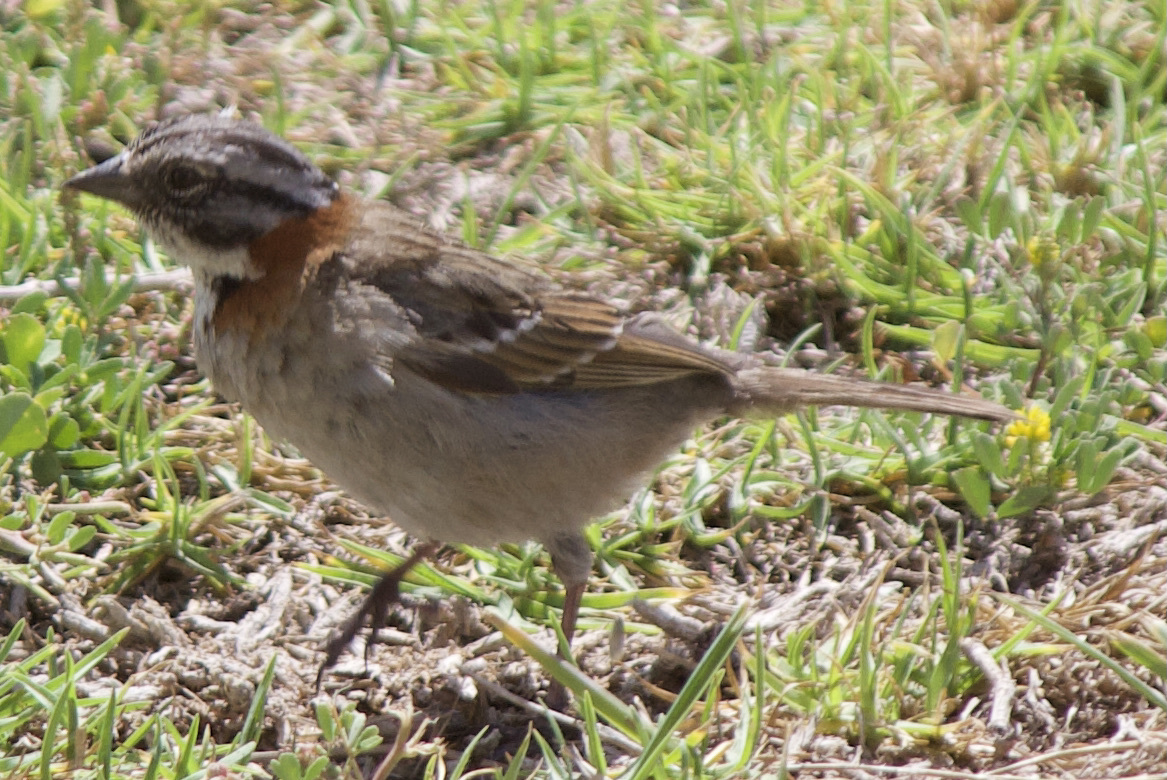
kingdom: Animalia
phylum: Chordata
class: Aves
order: Passeriformes
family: Passerellidae
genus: Zonotrichia
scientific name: Zonotrichia capensis
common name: Rufous-collared sparrow
